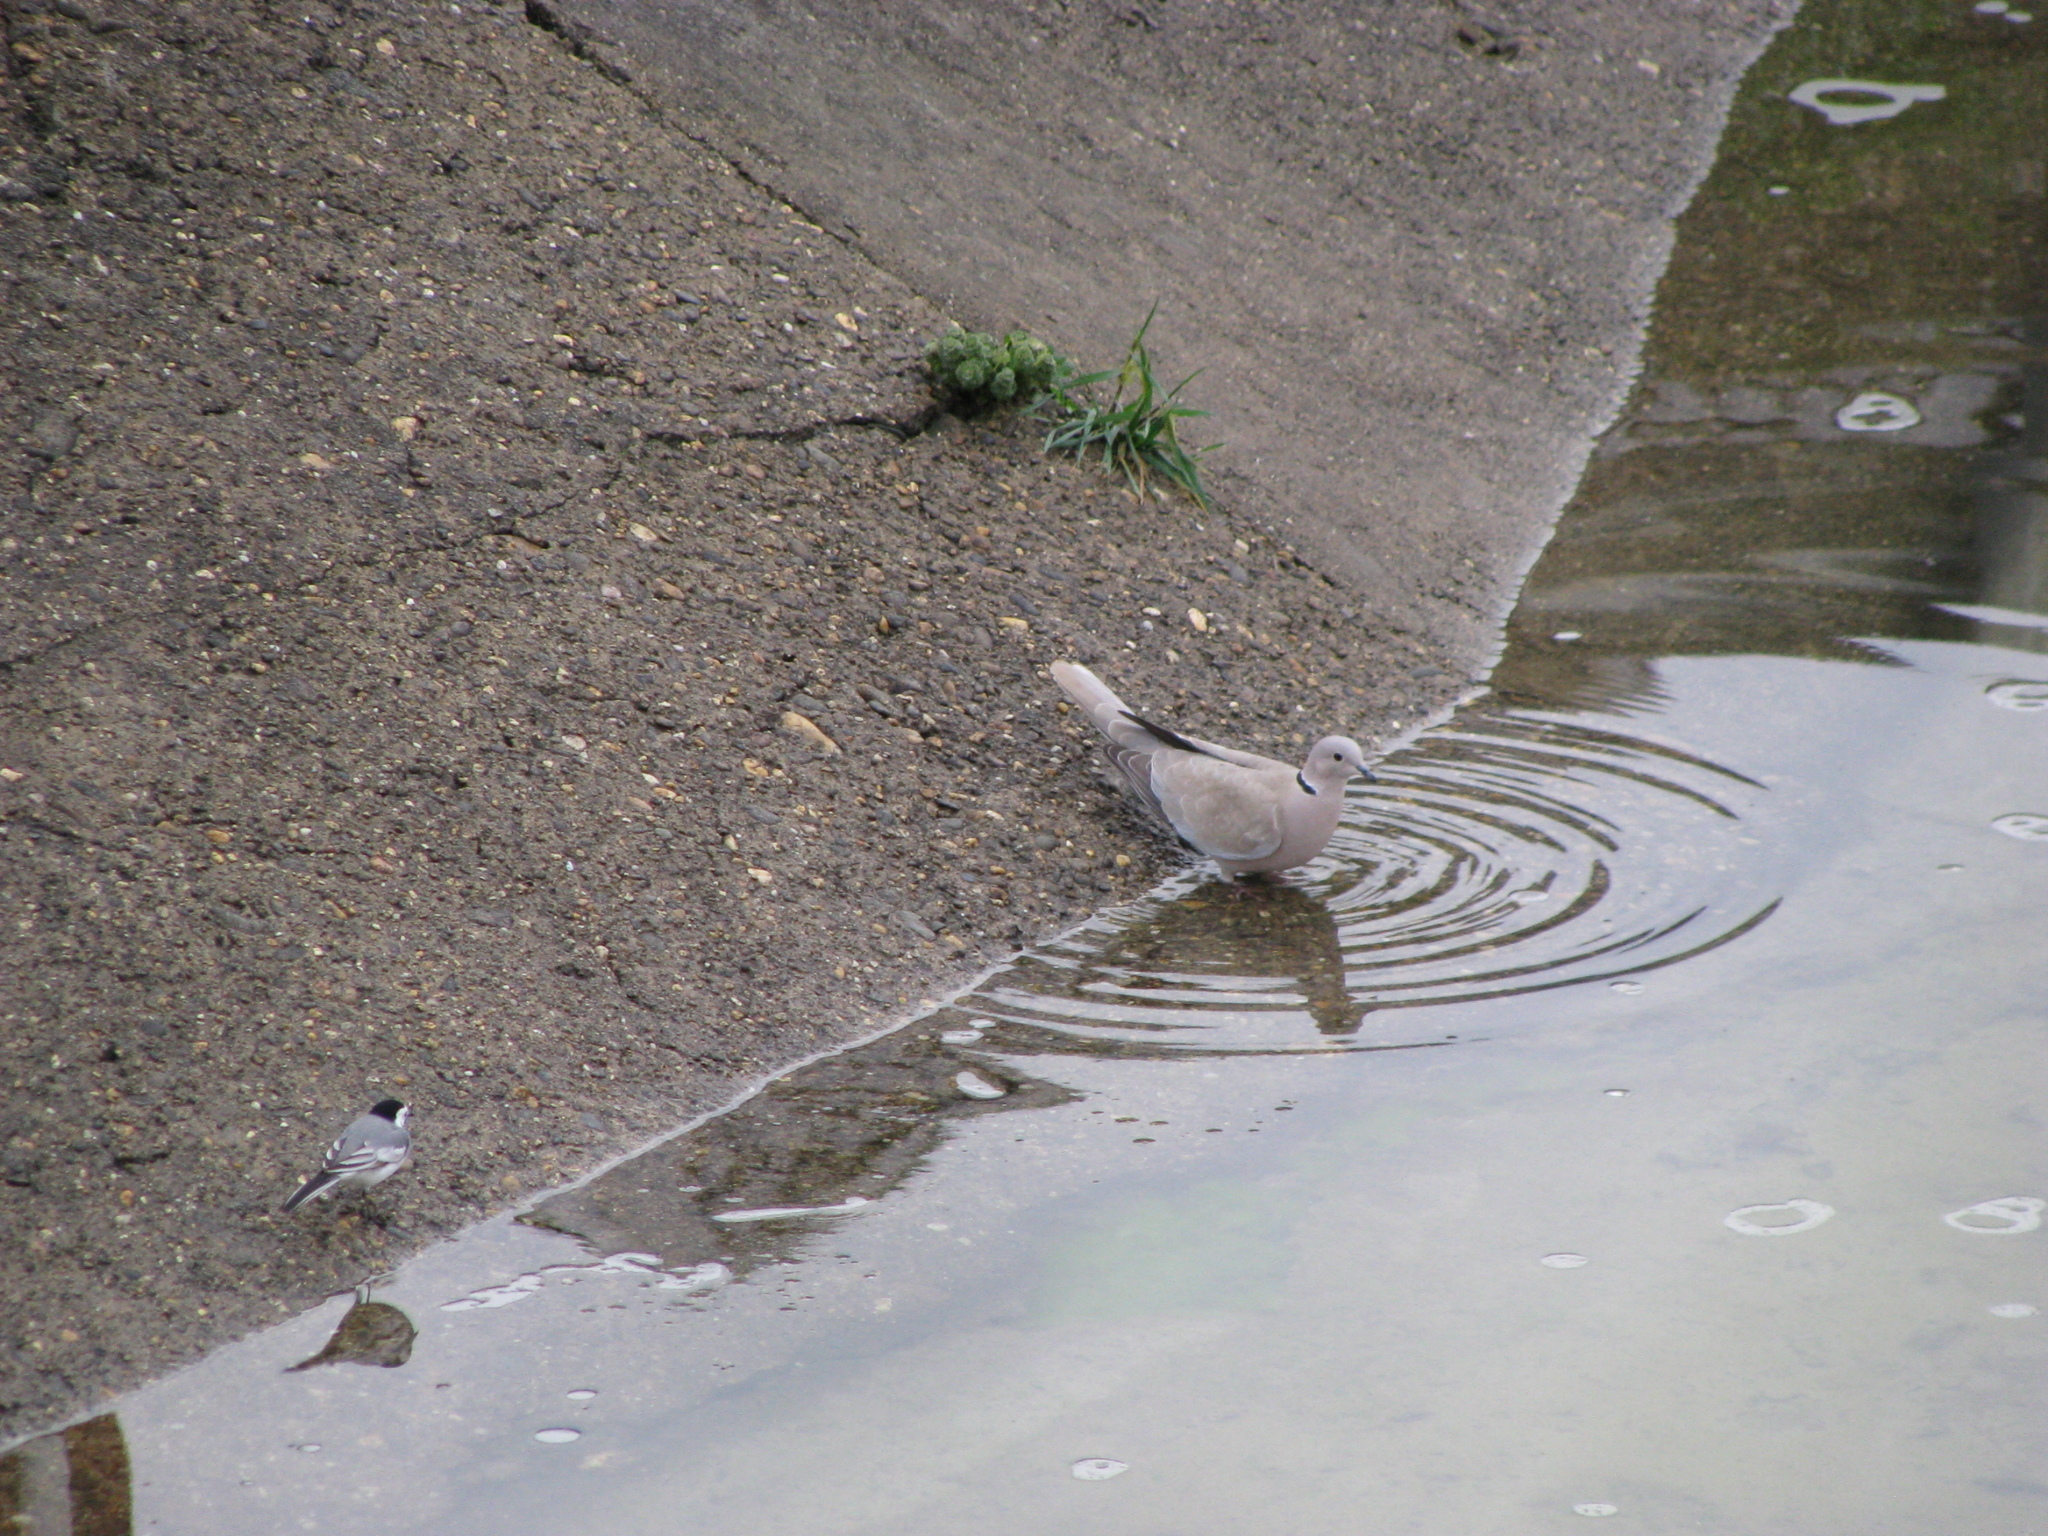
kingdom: Animalia
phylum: Chordata
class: Aves
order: Columbiformes
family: Columbidae
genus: Streptopelia
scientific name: Streptopelia decaocto
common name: Eurasian collared dove
